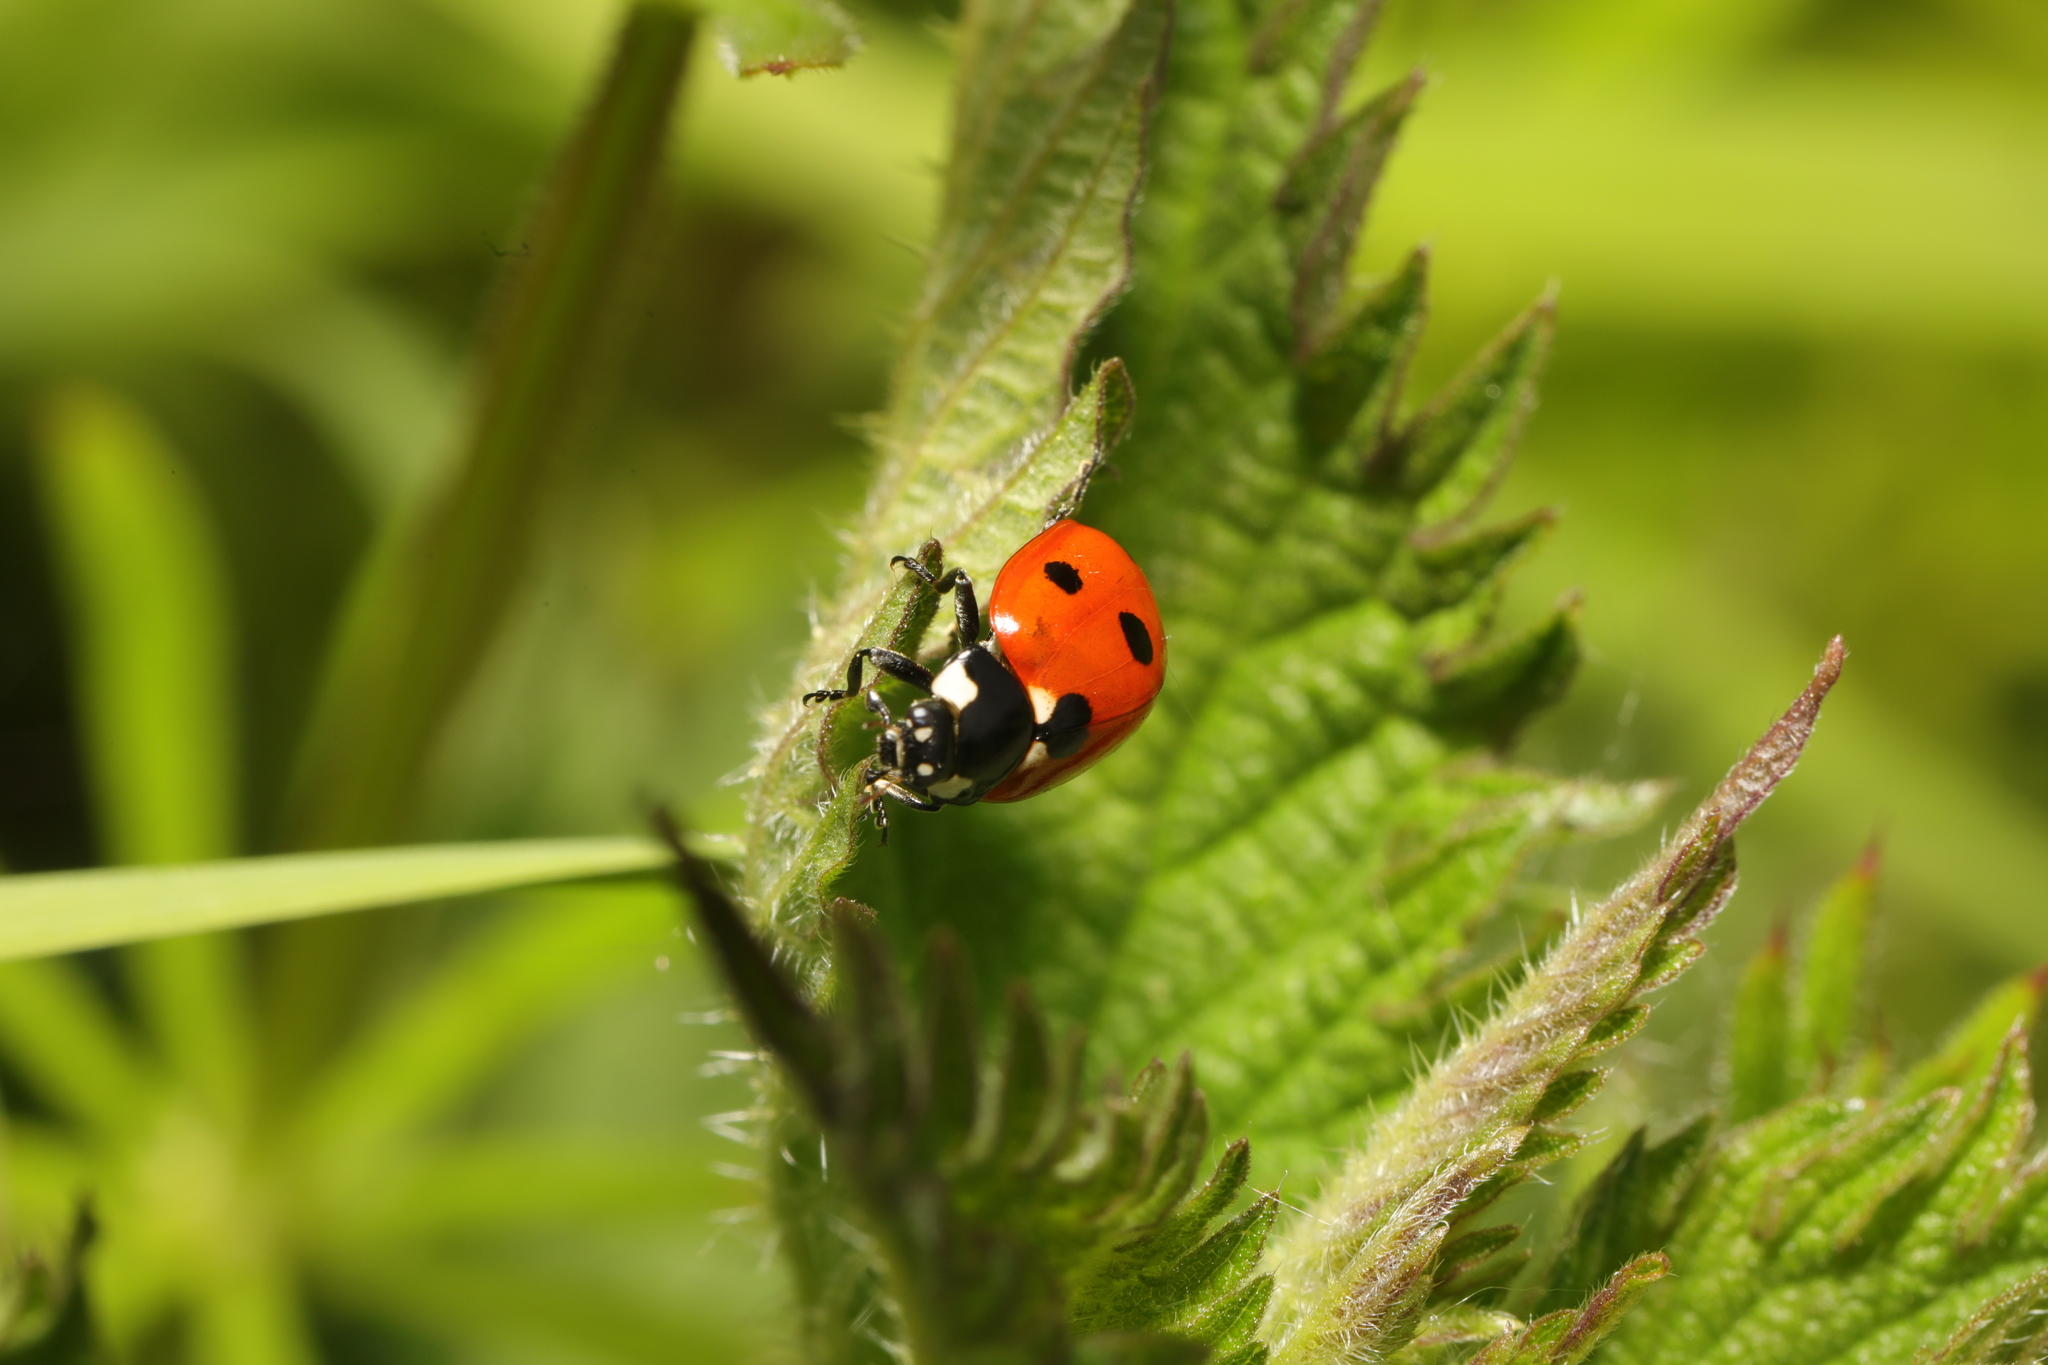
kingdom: Animalia
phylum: Arthropoda
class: Insecta
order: Coleoptera
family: Coccinellidae
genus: Coccinella
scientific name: Coccinella septempunctata
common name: Sevenspotted lady beetle
